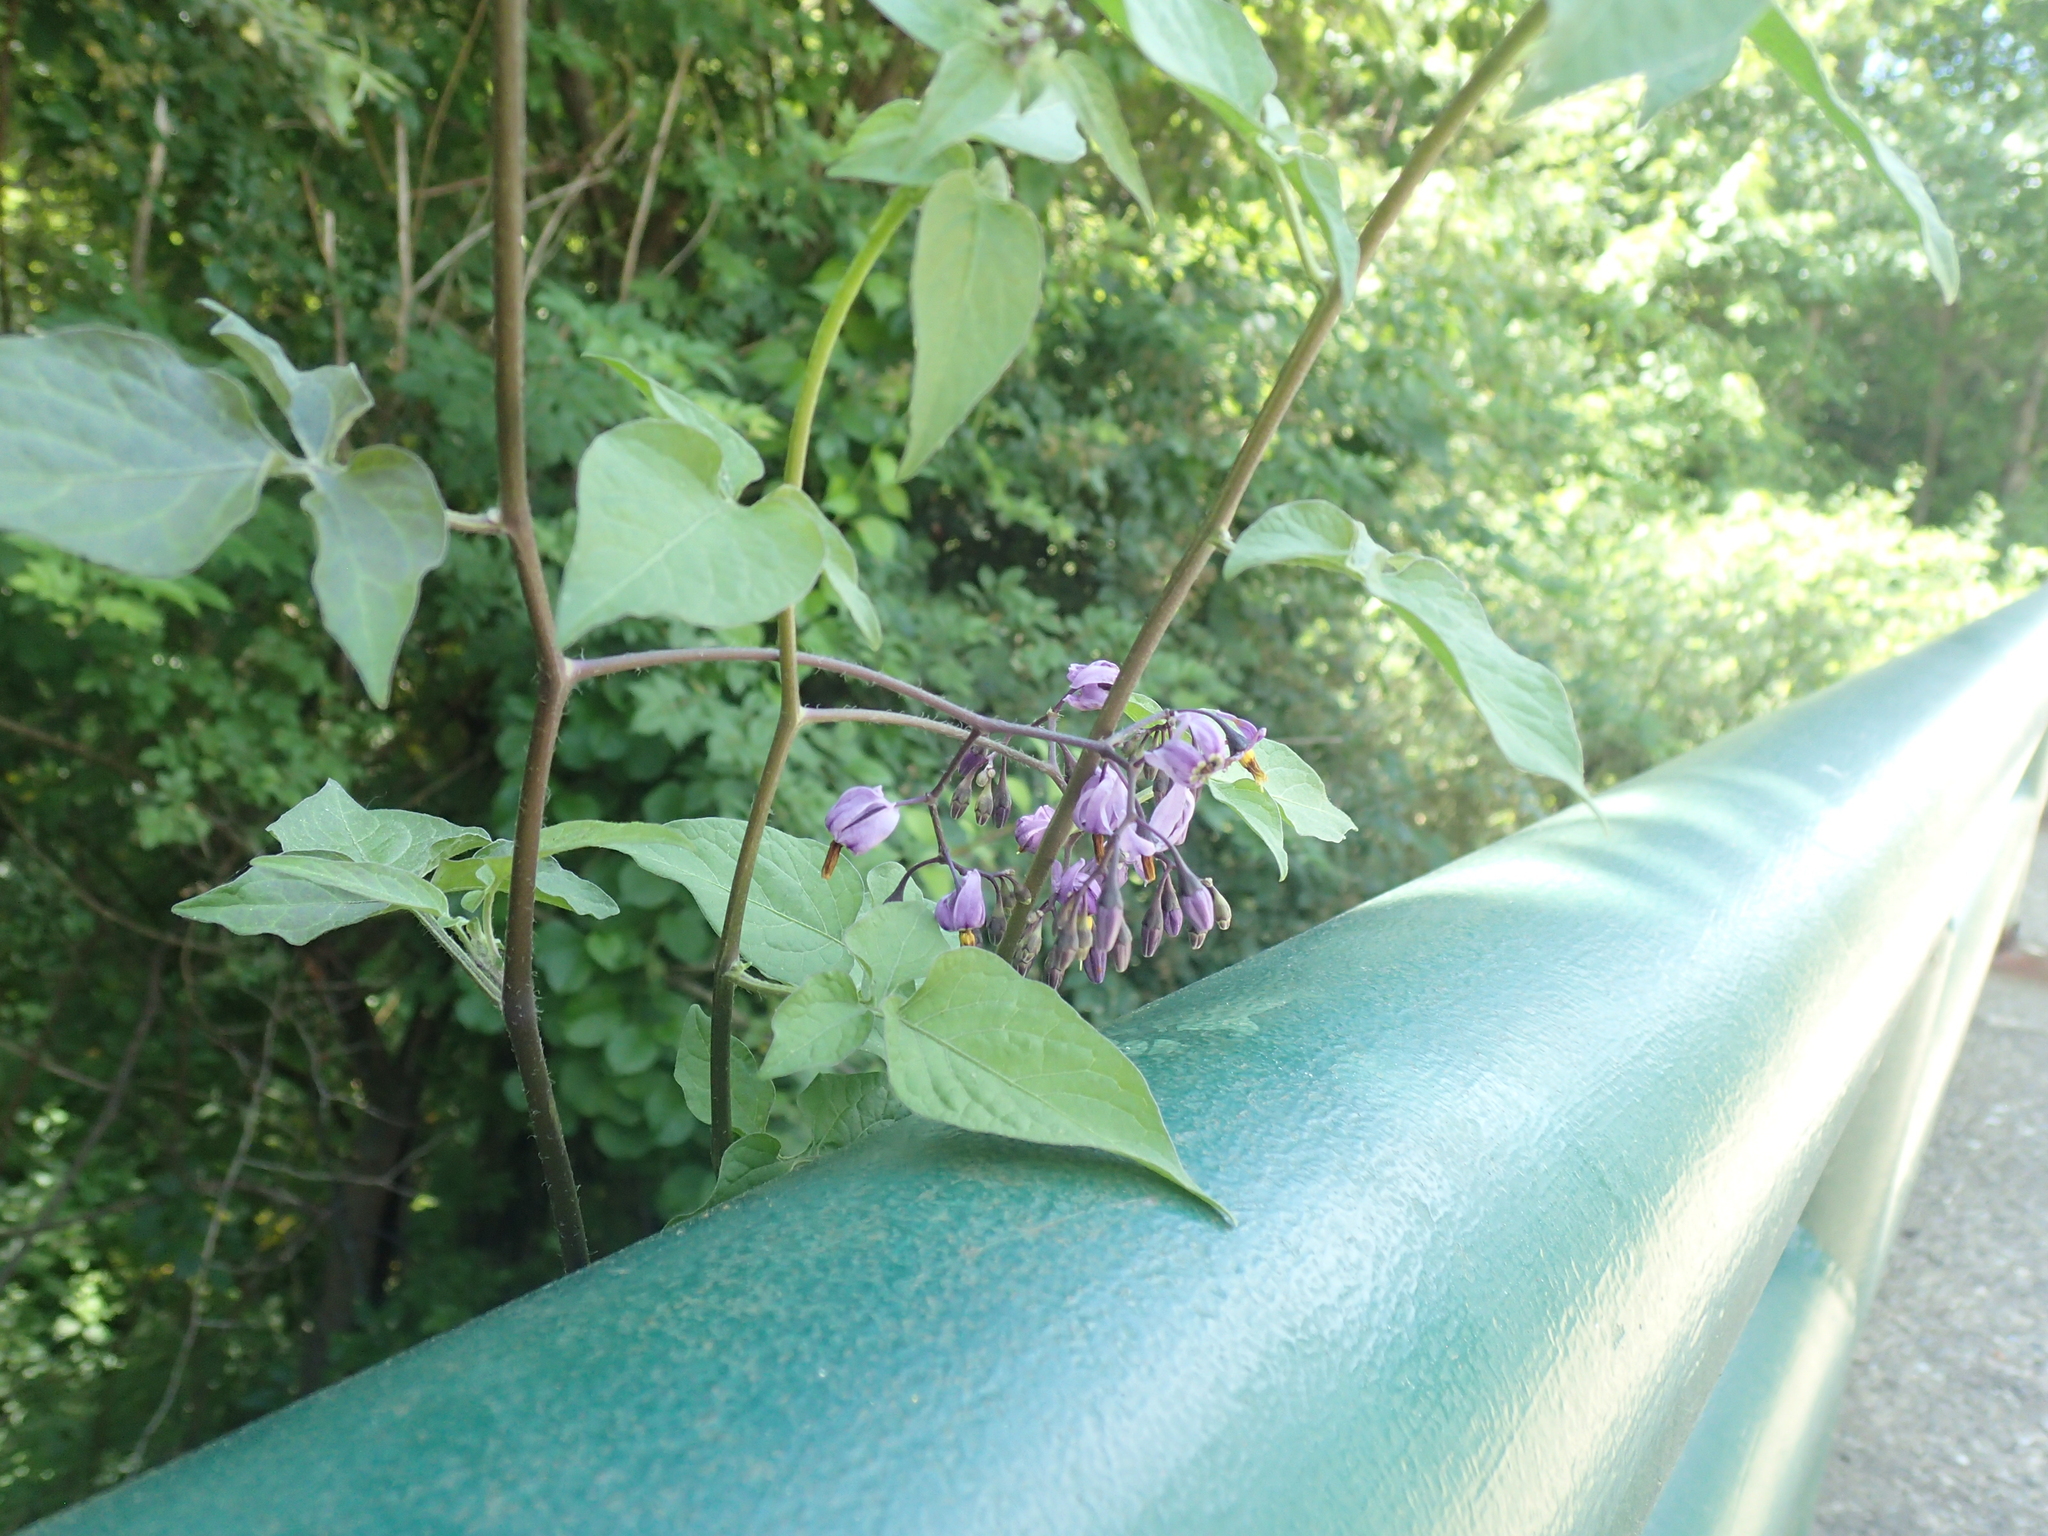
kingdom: Plantae
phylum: Tracheophyta
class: Magnoliopsida
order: Solanales
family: Solanaceae
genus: Solanum
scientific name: Solanum dulcamara
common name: Climbing nightshade
